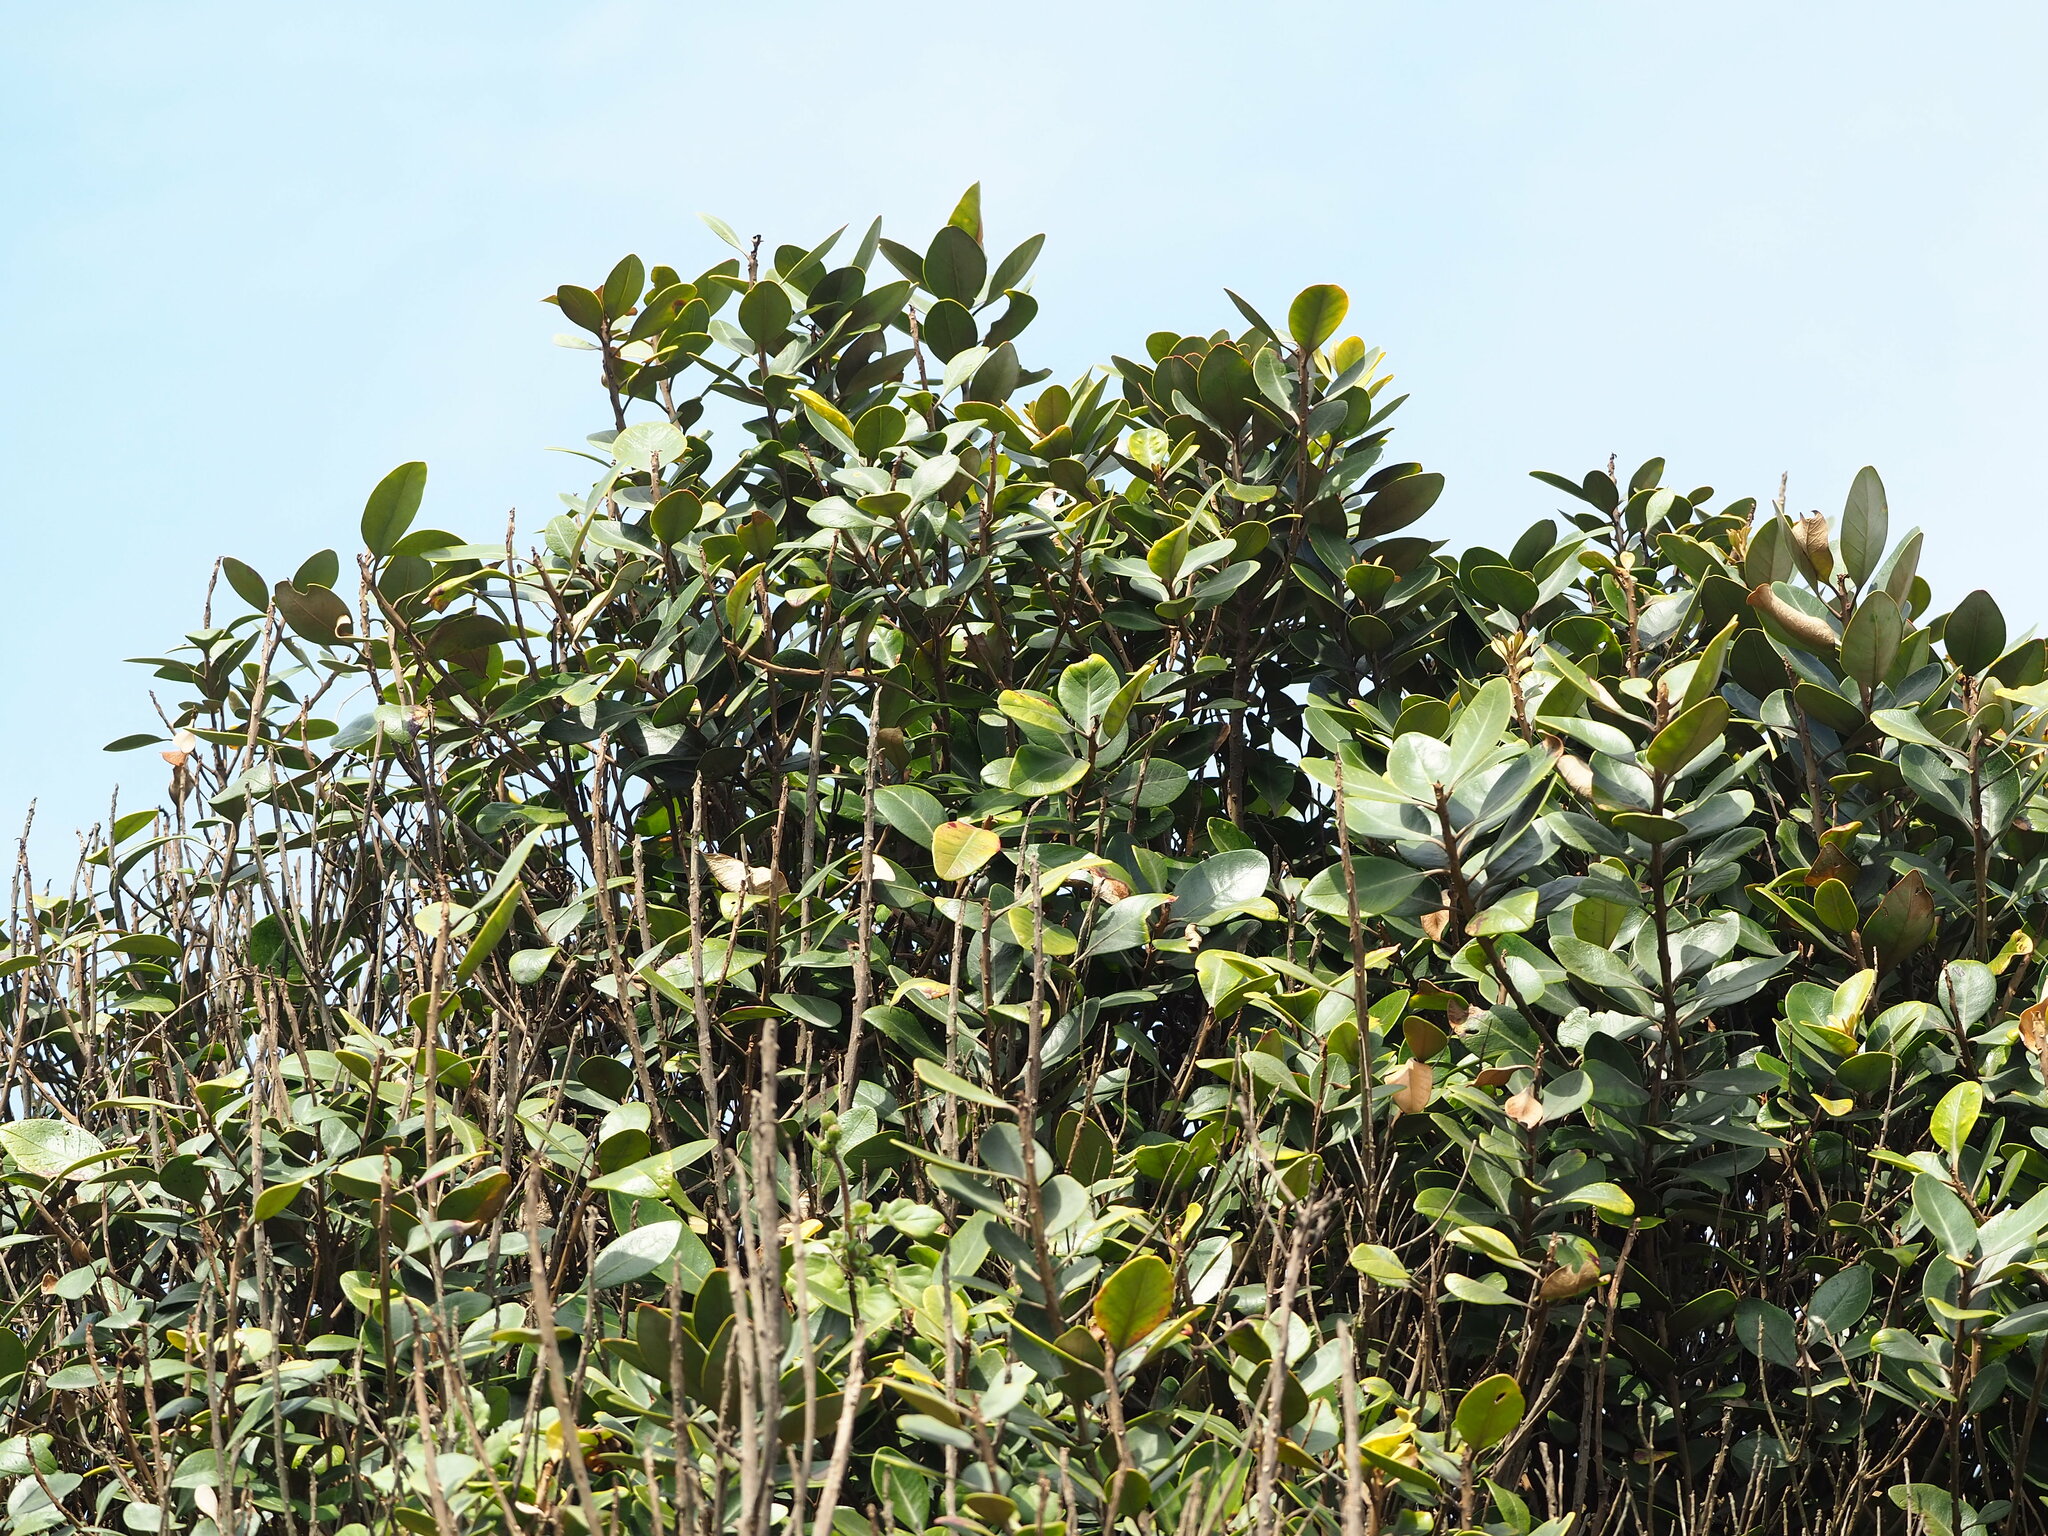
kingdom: Plantae
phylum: Tracheophyta
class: Magnoliopsida
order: Ericales
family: Sapotaceae
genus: Planchonella
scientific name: Planchonella obovata
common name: Black-ash
